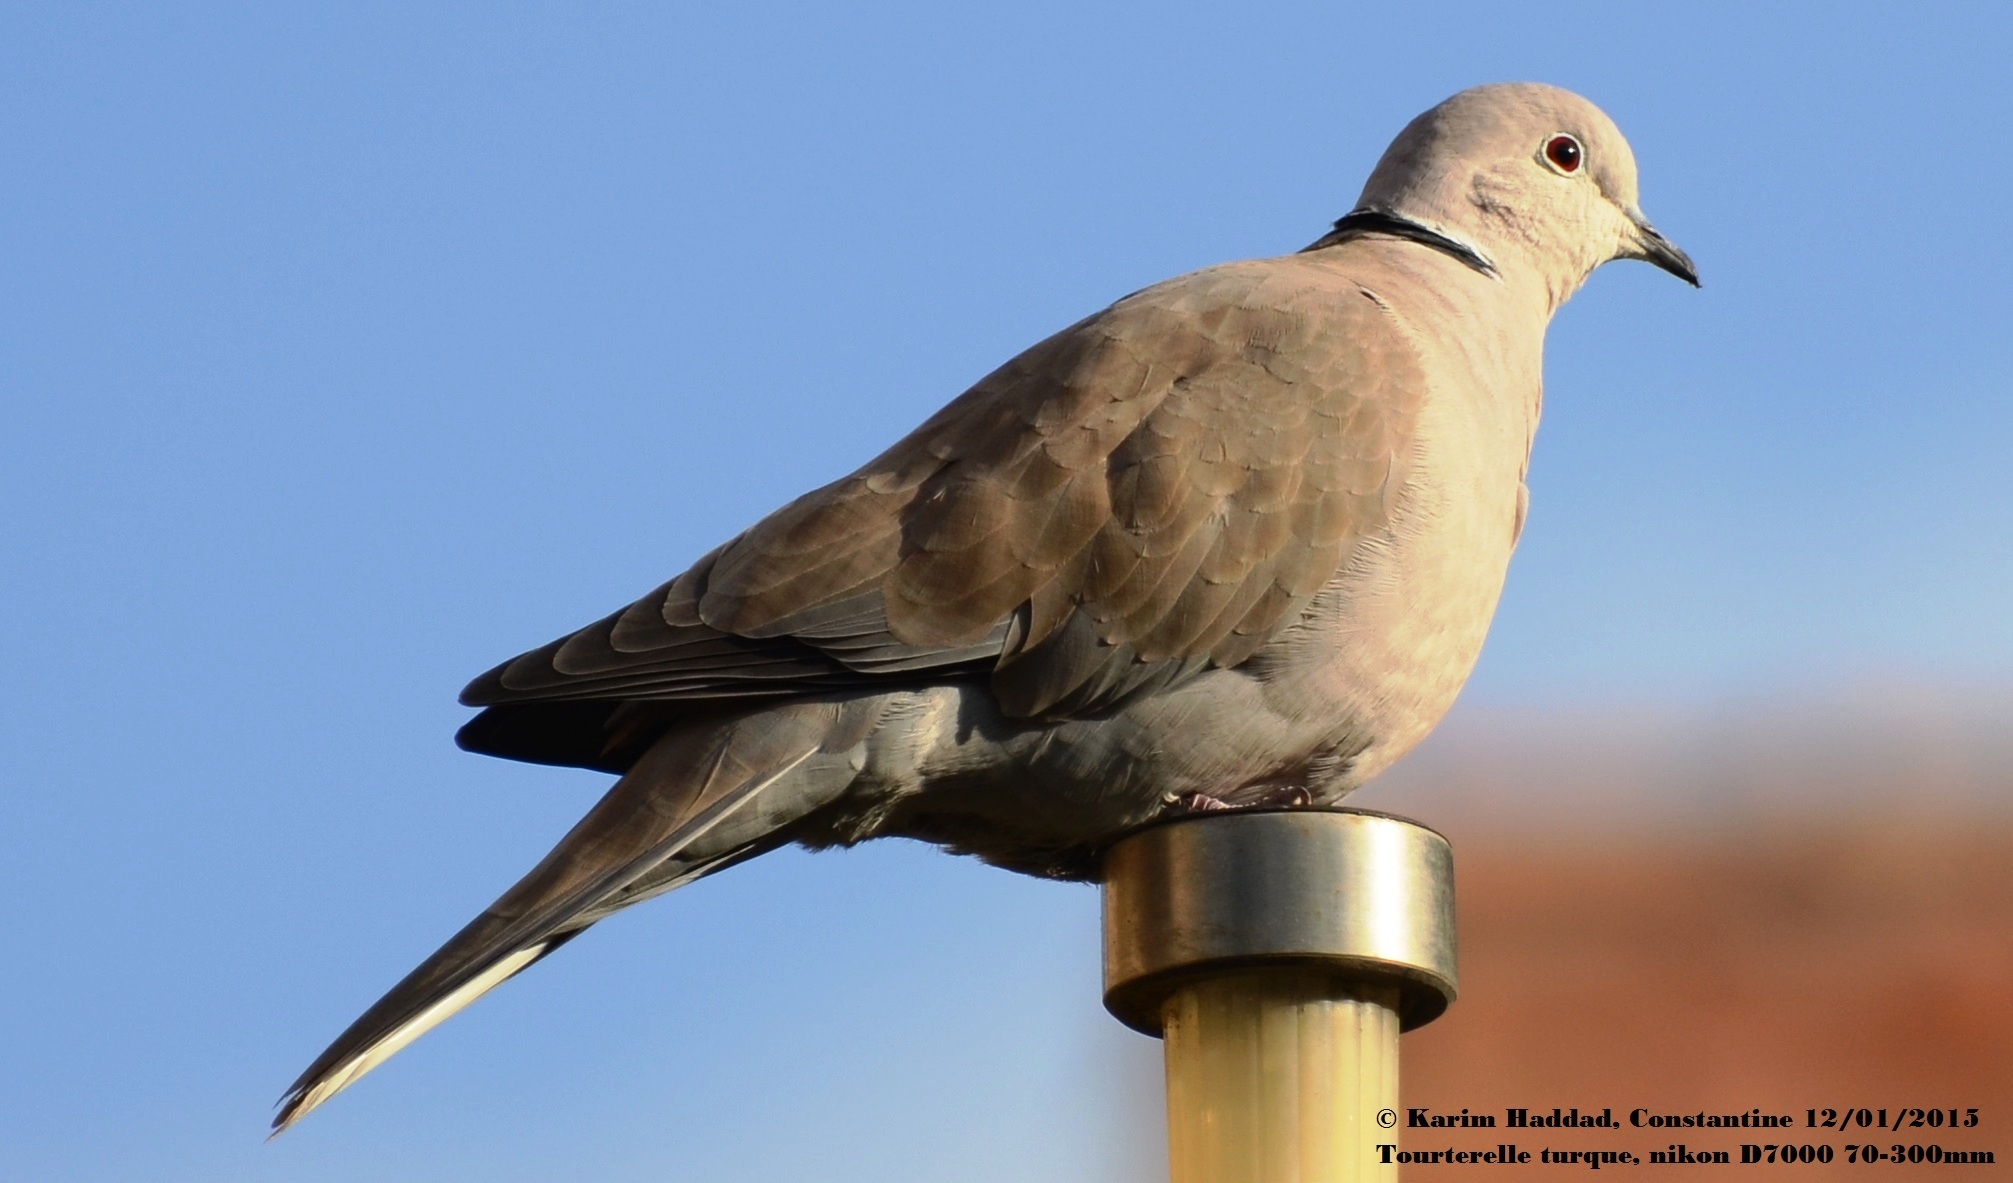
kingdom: Animalia
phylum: Chordata
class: Aves
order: Columbiformes
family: Columbidae
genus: Streptopelia
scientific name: Streptopelia decaocto
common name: Eurasian collared dove
